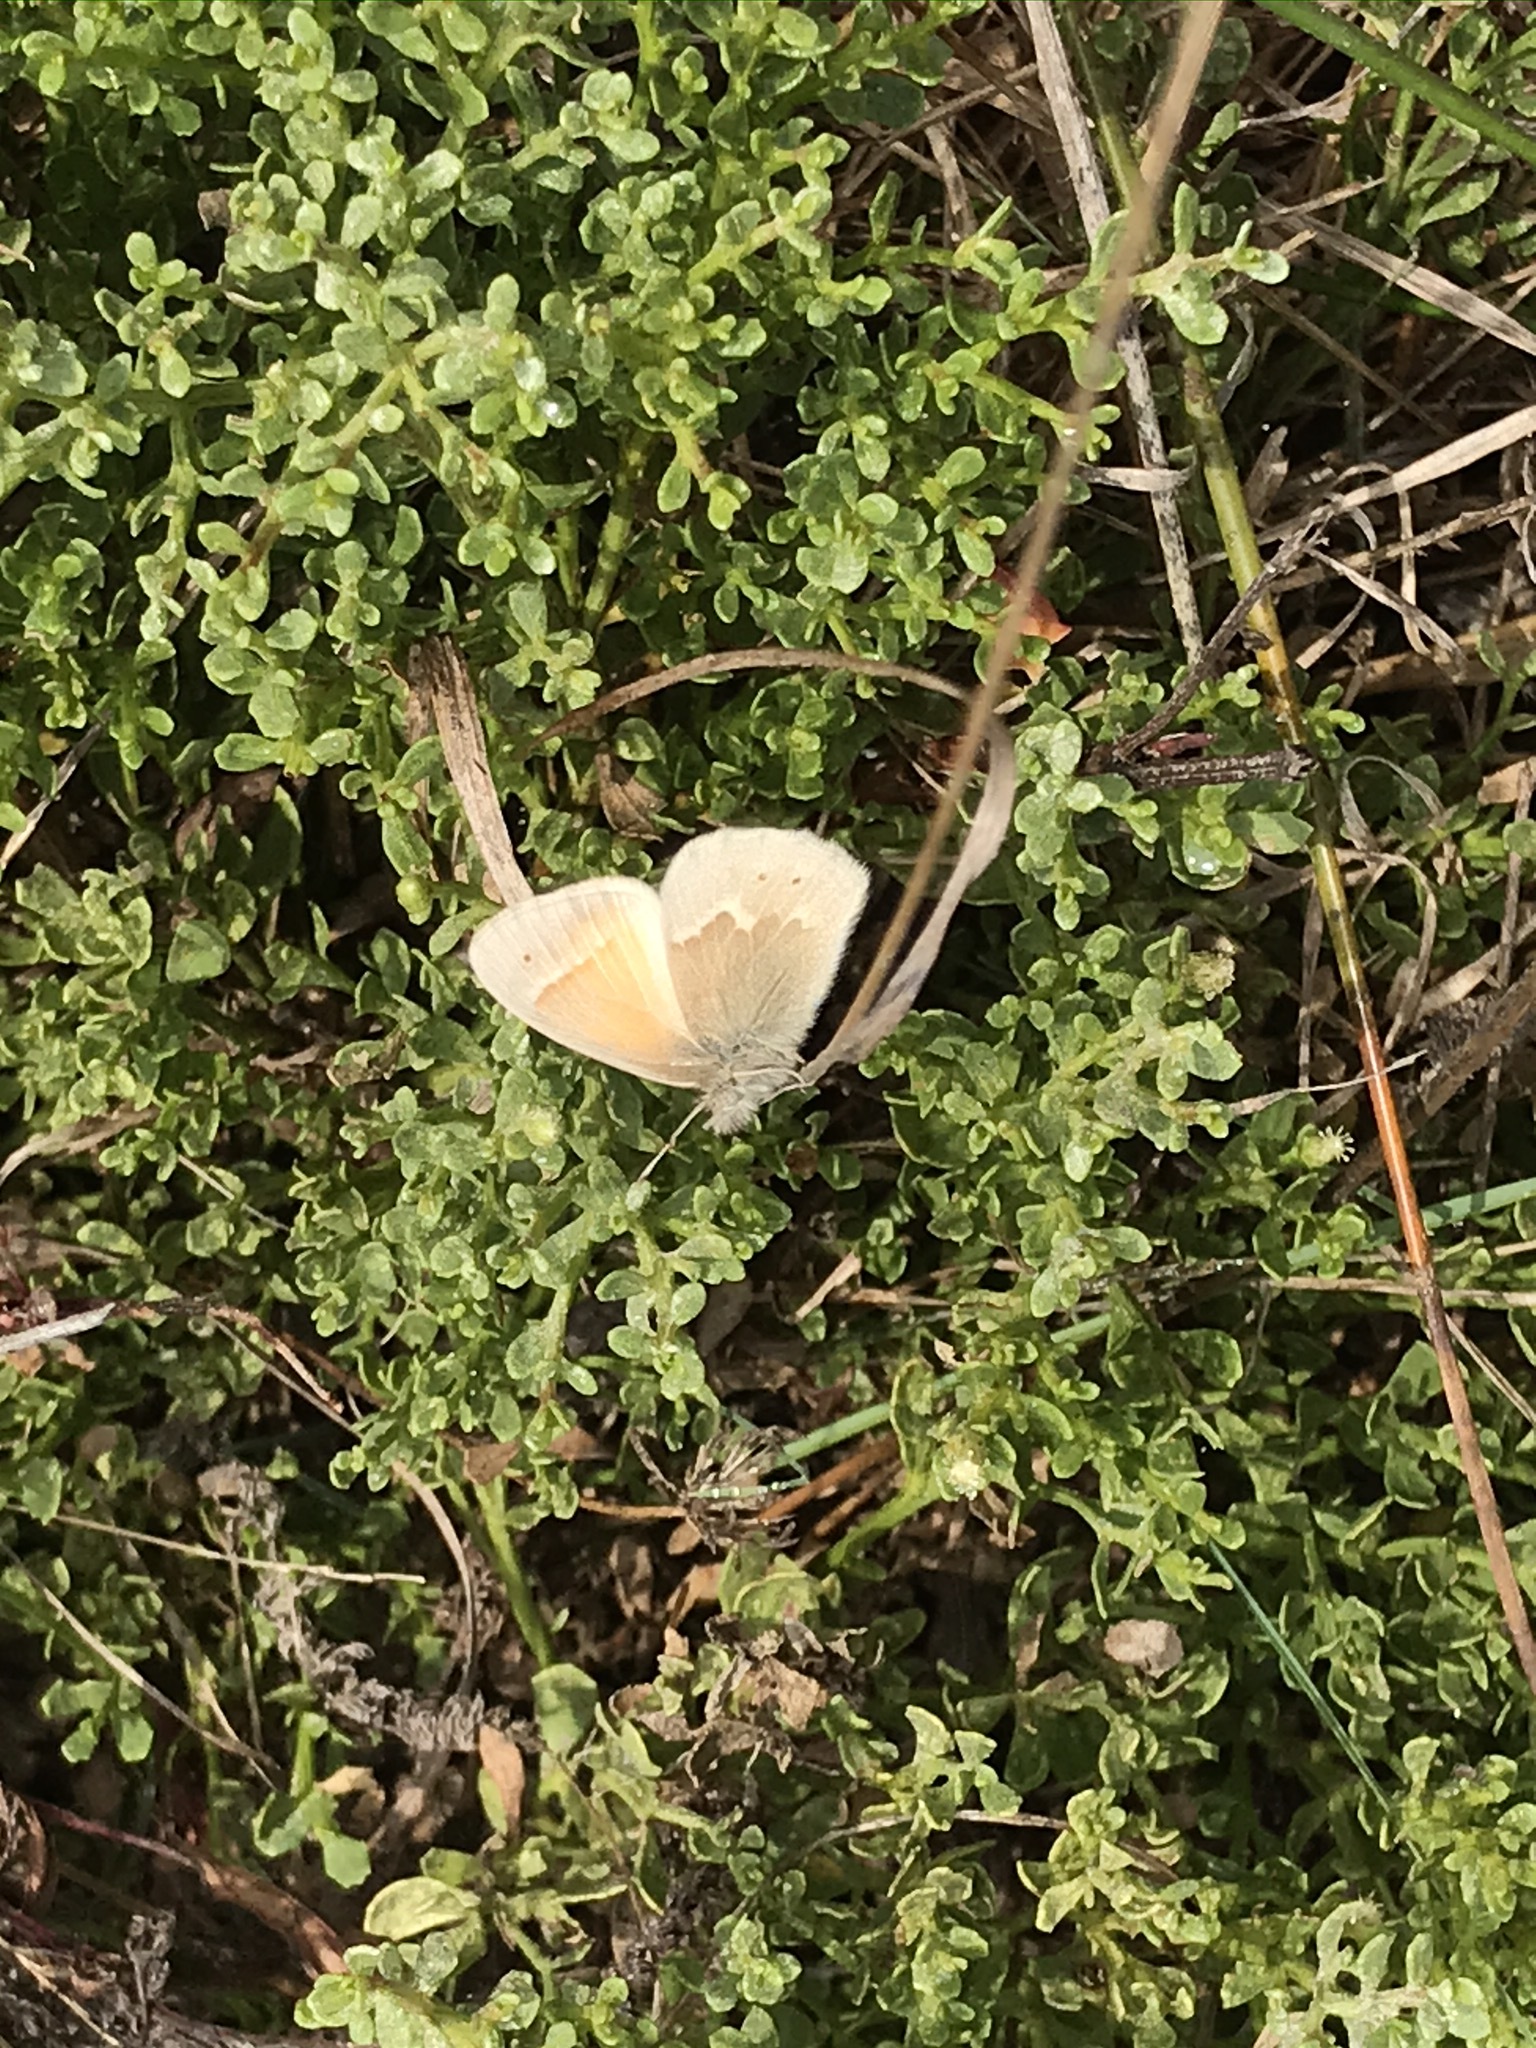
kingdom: Animalia
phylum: Arthropoda
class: Insecta
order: Lepidoptera
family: Nymphalidae
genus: Coenonympha
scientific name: Coenonympha california
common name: Common ringlet
